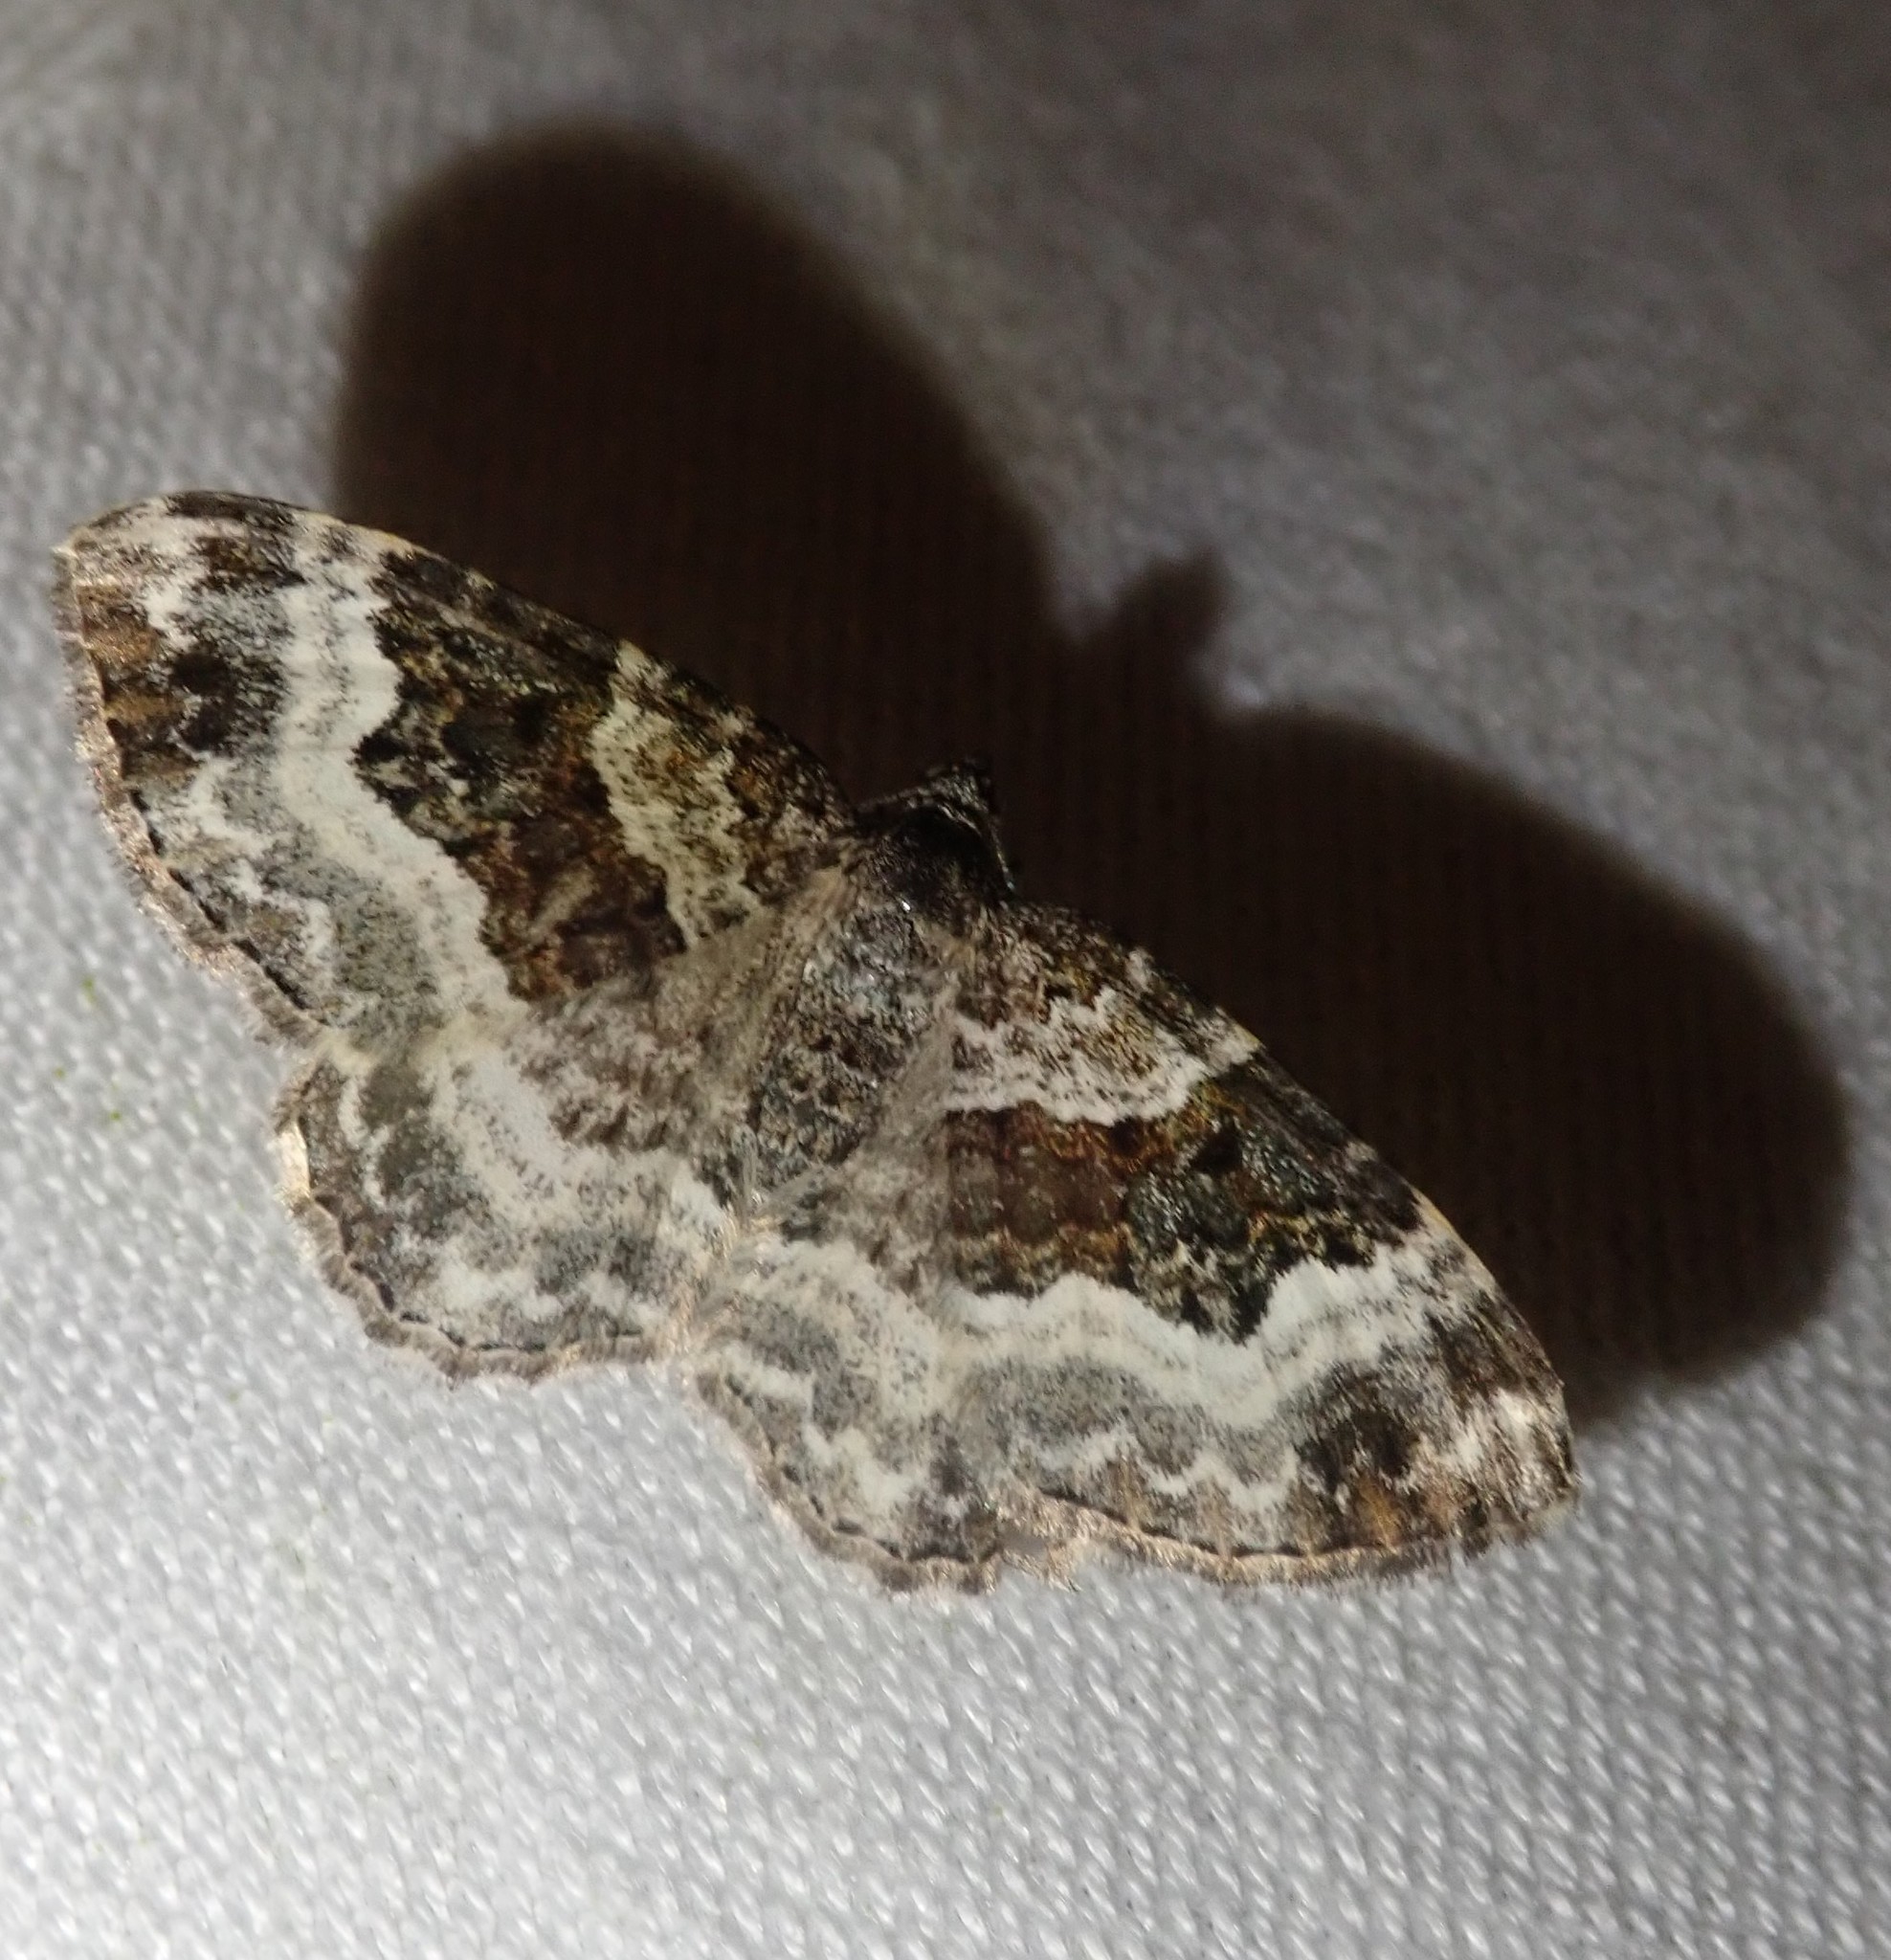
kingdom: Animalia
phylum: Arthropoda
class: Insecta
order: Lepidoptera
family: Geometridae
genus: Epirrhoe
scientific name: Epirrhoe alternata
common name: Common carpet
